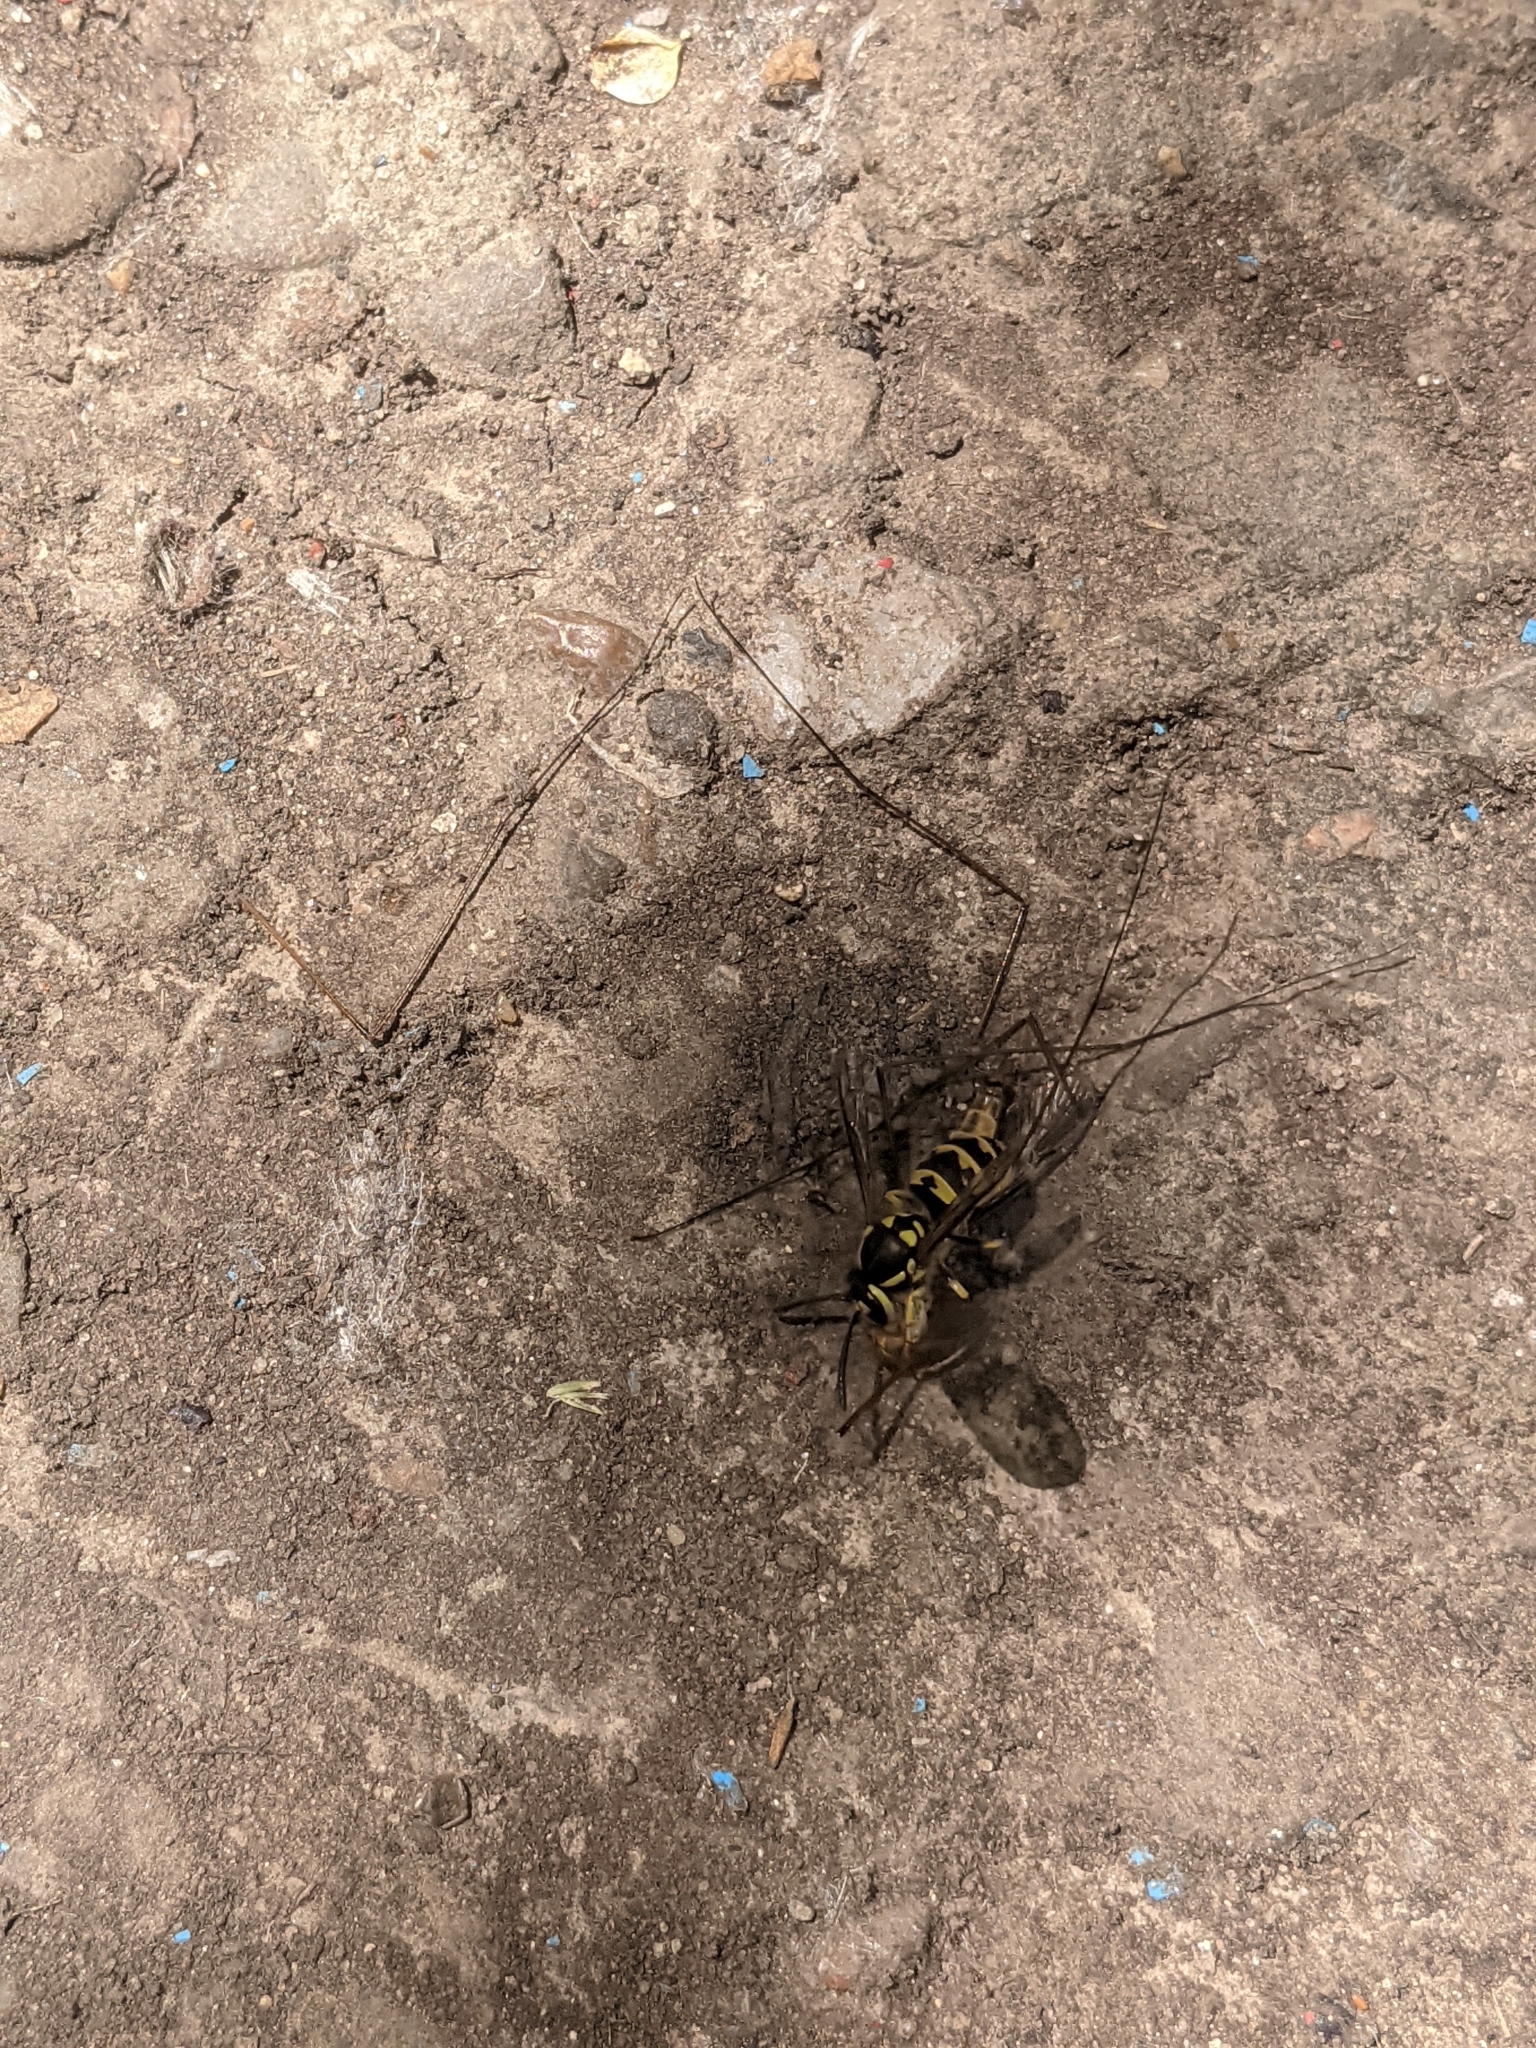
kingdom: Animalia
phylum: Arthropoda
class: Insecta
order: Hymenoptera
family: Vespidae
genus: Vespula
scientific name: Vespula germanica
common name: German wasp
